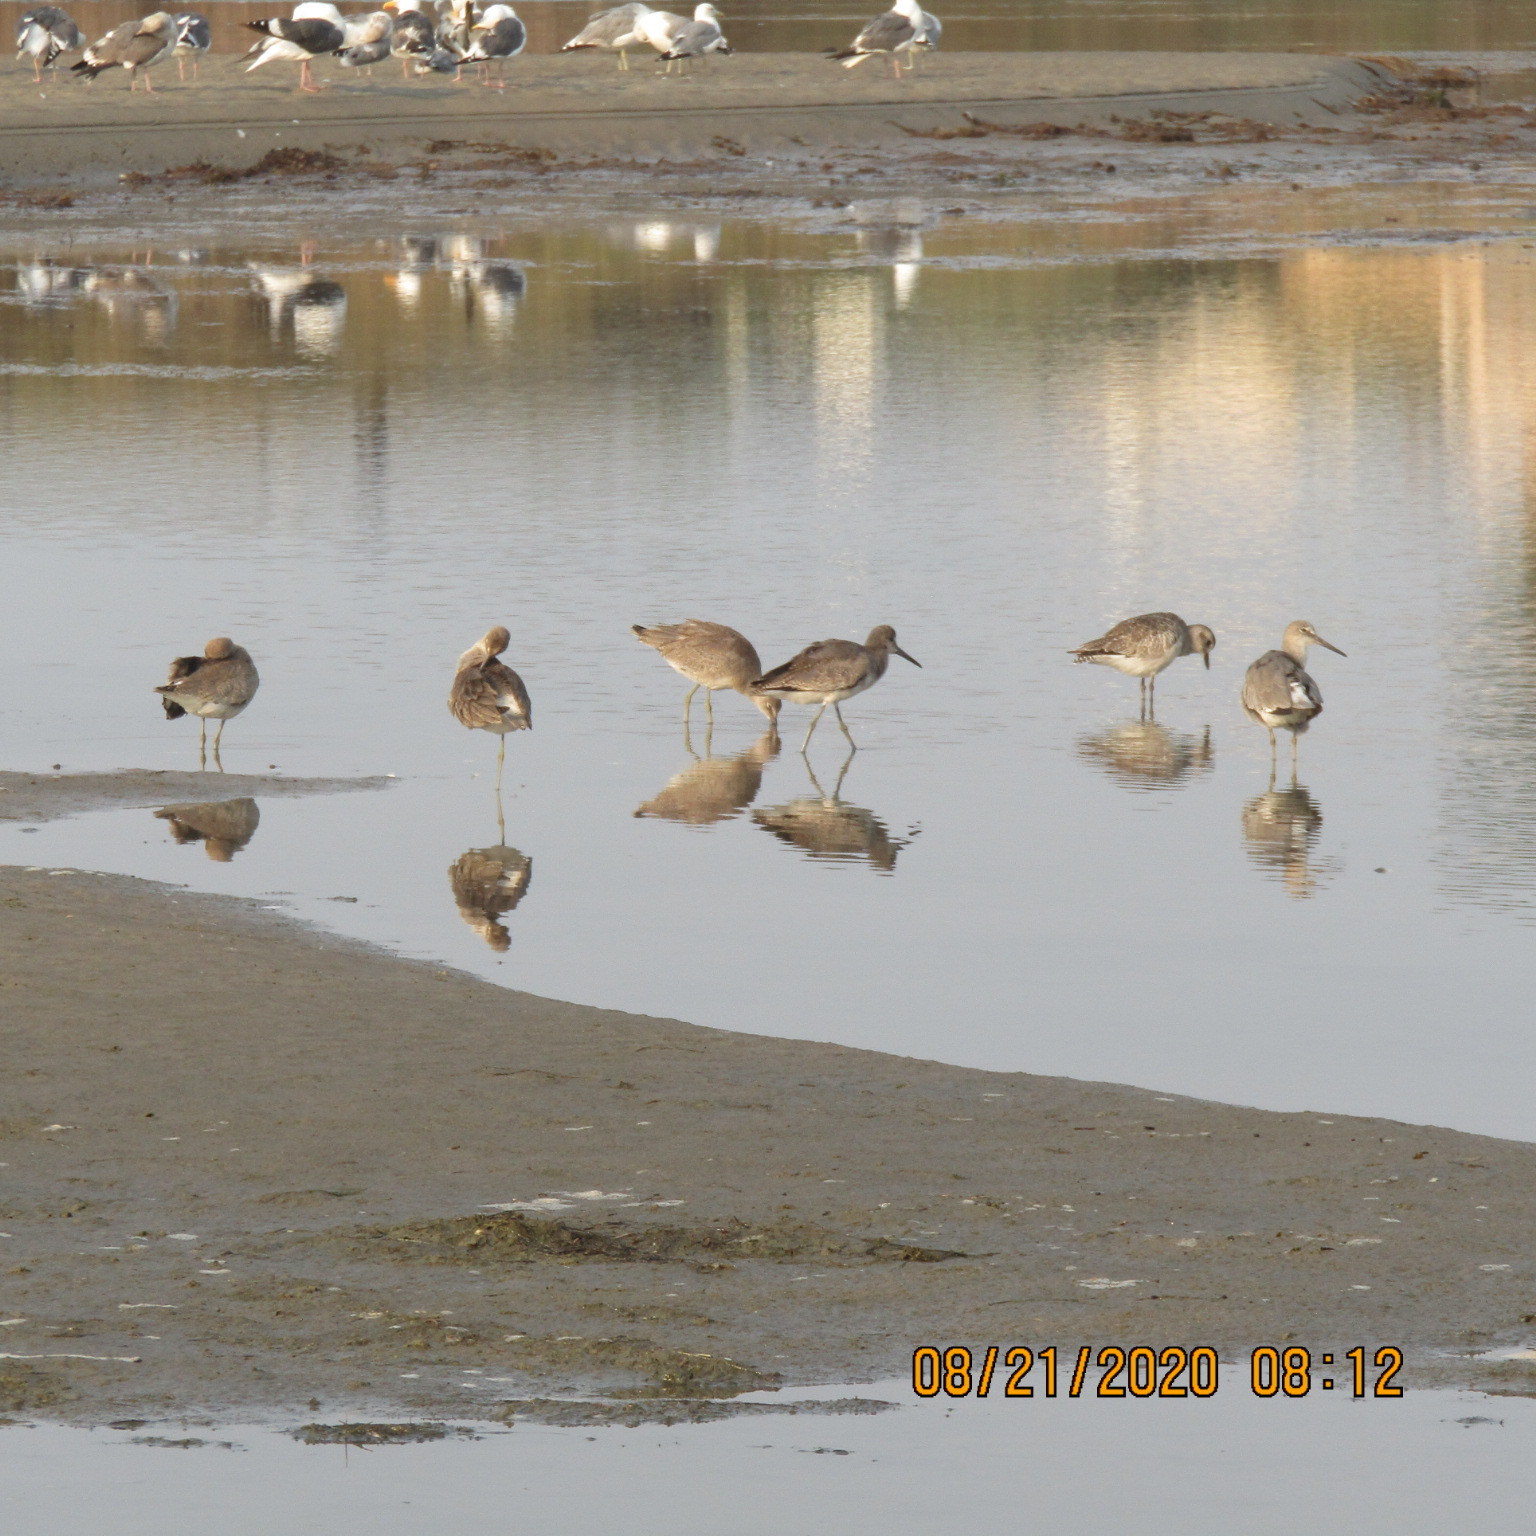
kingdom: Animalia
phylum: Chordata
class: Aves
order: Charadriiformes
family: Scolopacidae
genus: Tringa
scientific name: Tringa semipalmata
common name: Willet
